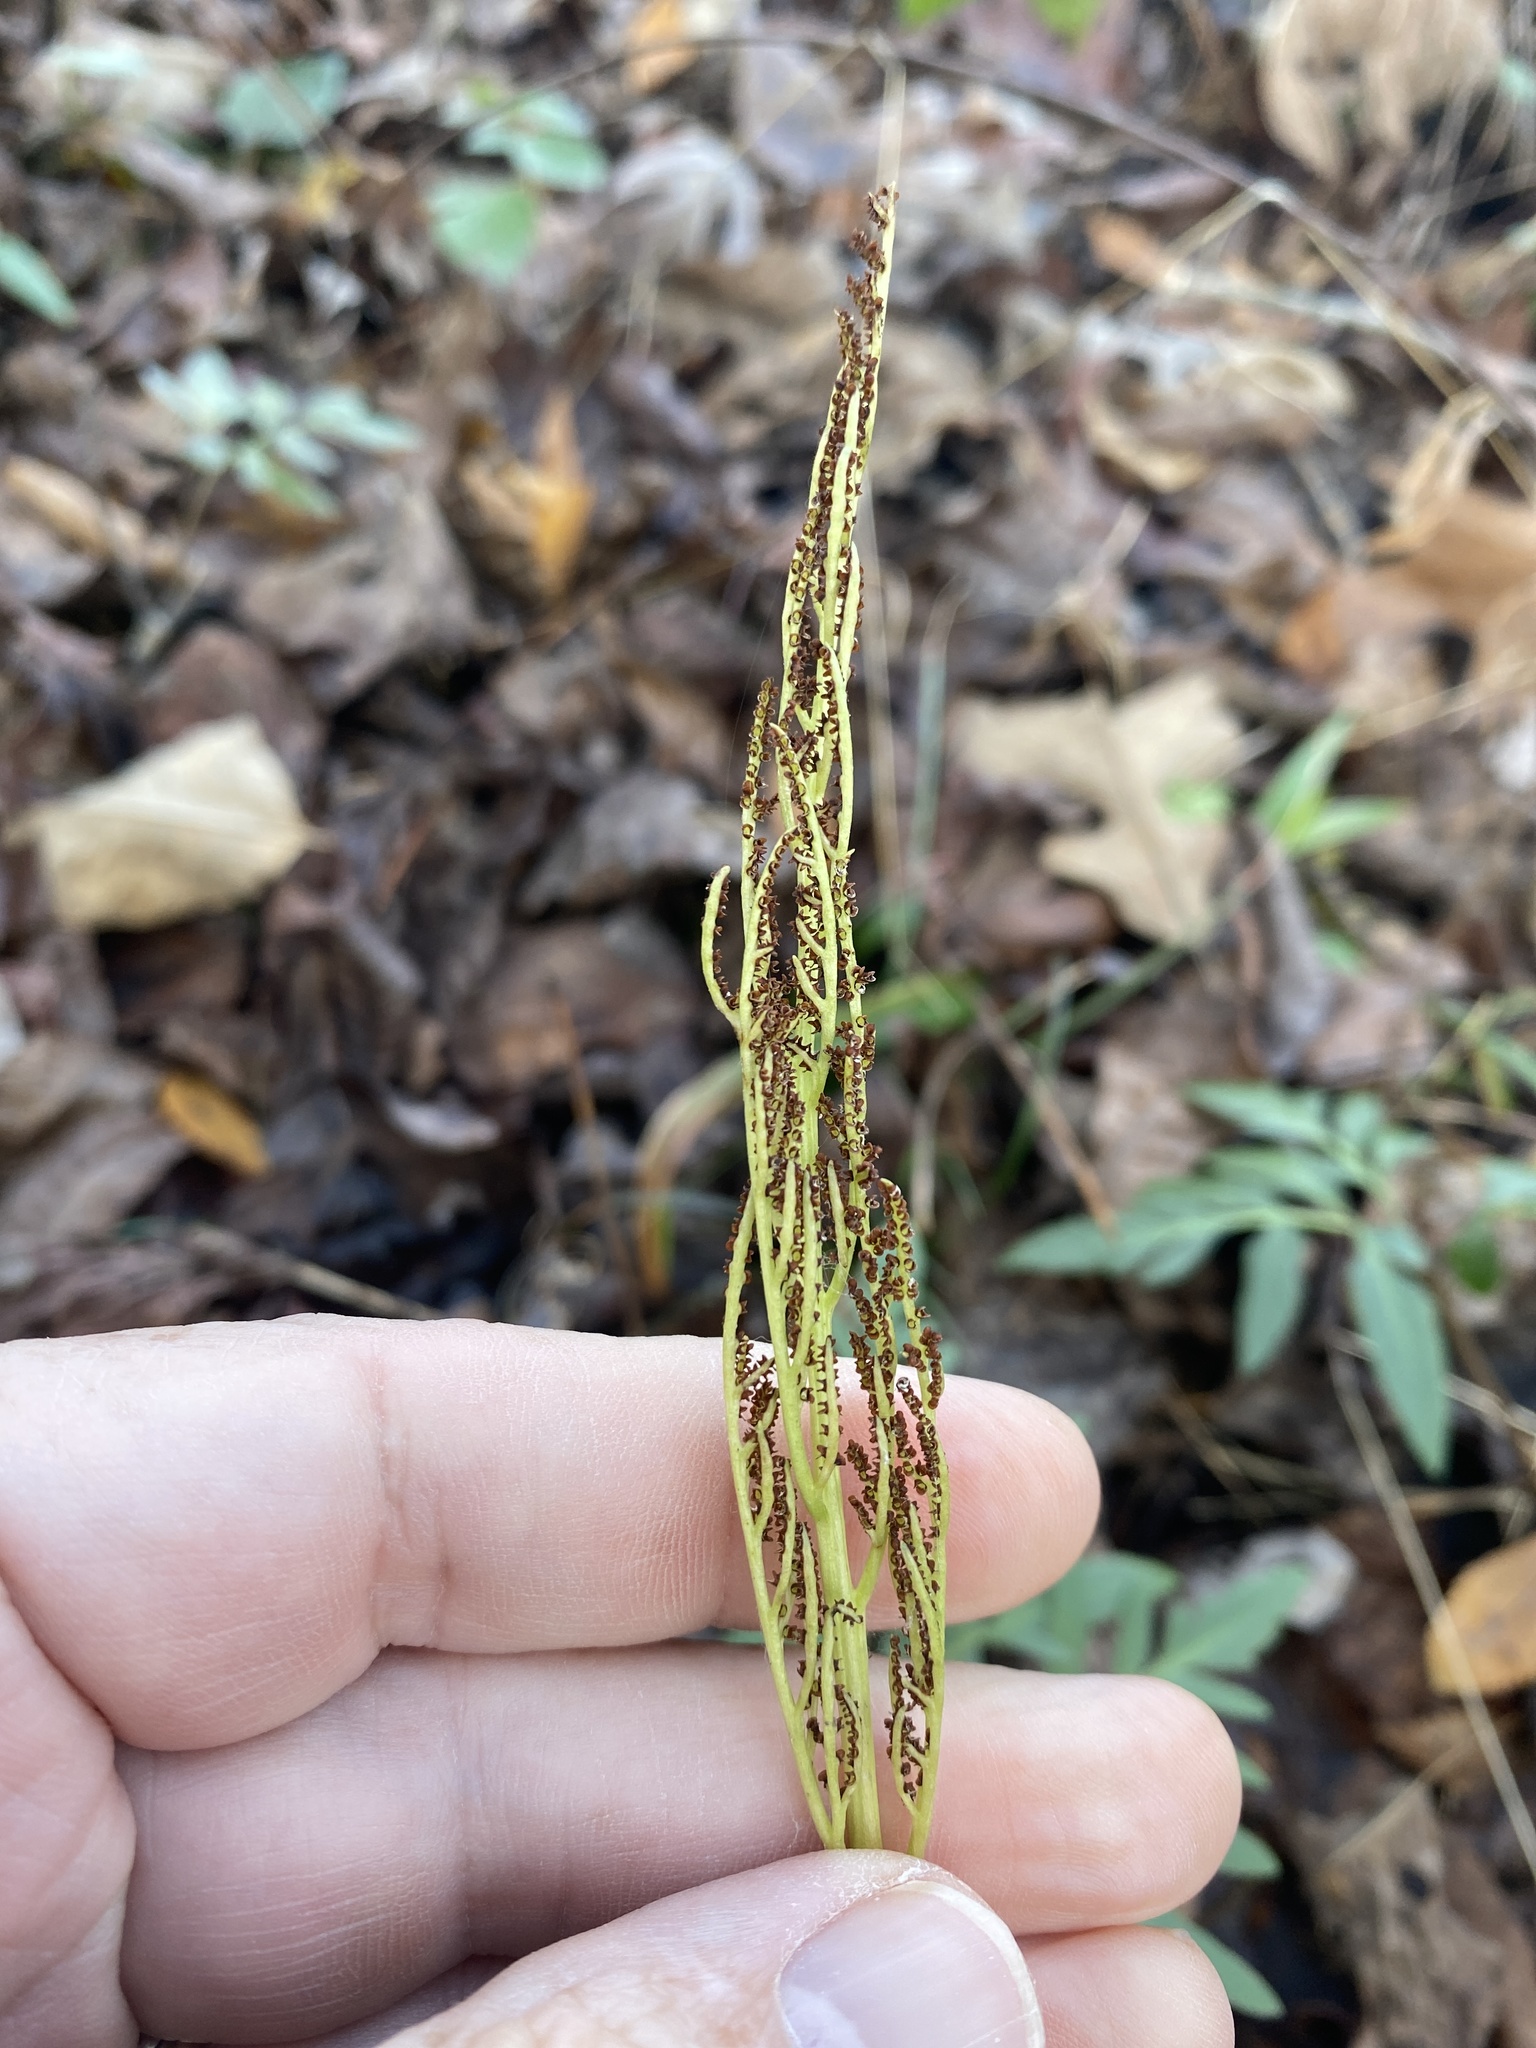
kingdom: Plantae
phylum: Tracheophyta
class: Polypodiopsida
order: Ophioglossales
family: Ophioglossaceae
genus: Sceptridium
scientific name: Sceptridium biternatum
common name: Sparse-lobed grapefern
